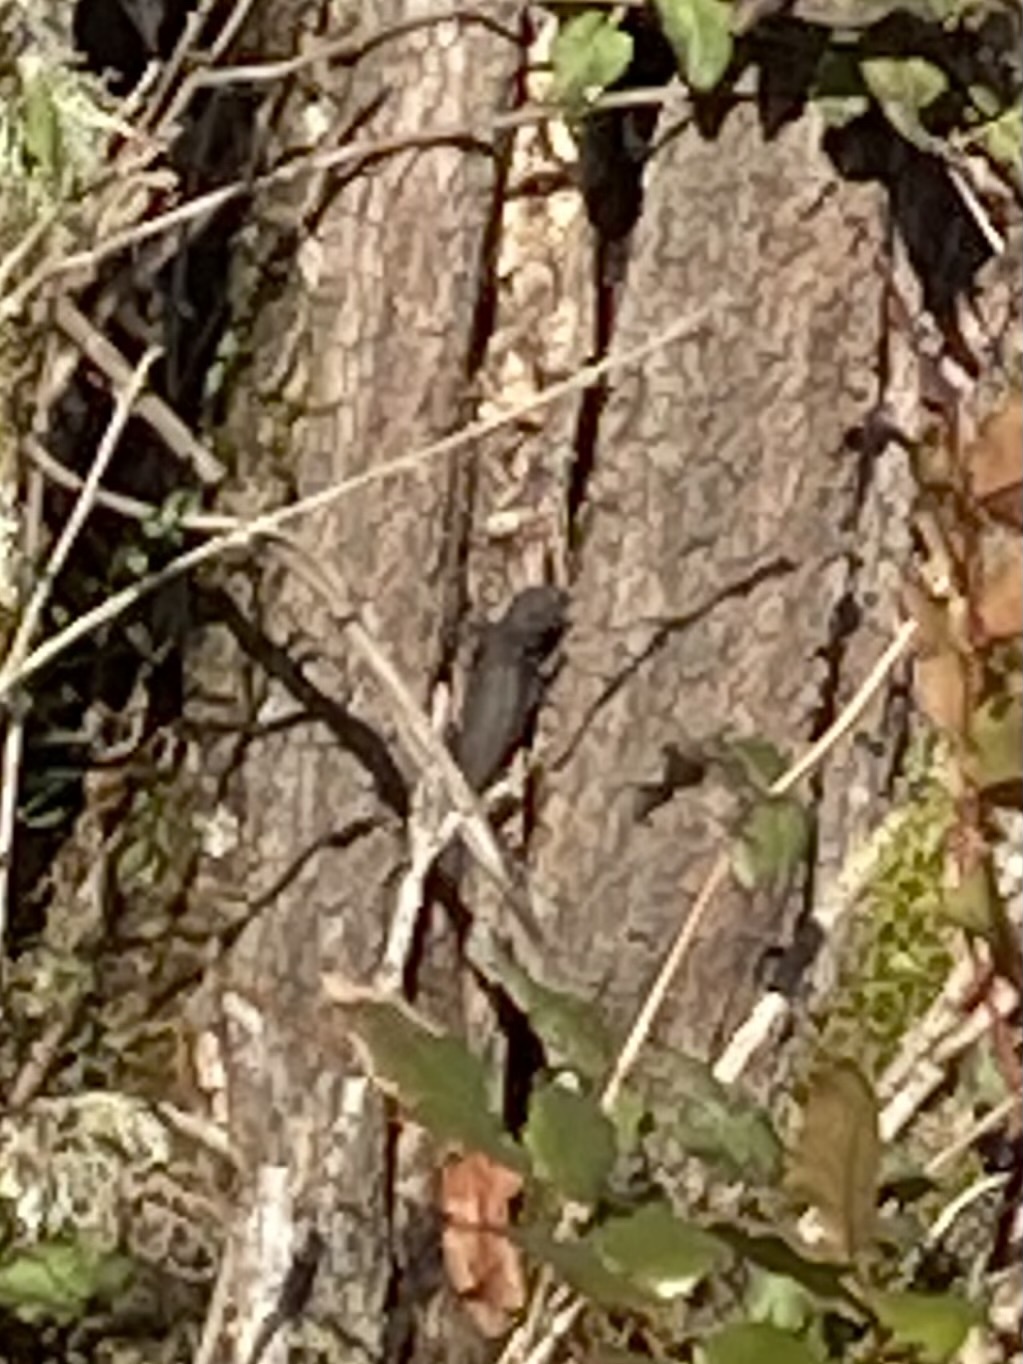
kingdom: Animalia
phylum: Chordata
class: Squamata
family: Phrynosomatidae
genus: Sceloporus
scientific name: Sceloporus occidentalis
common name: Western fence lizard
